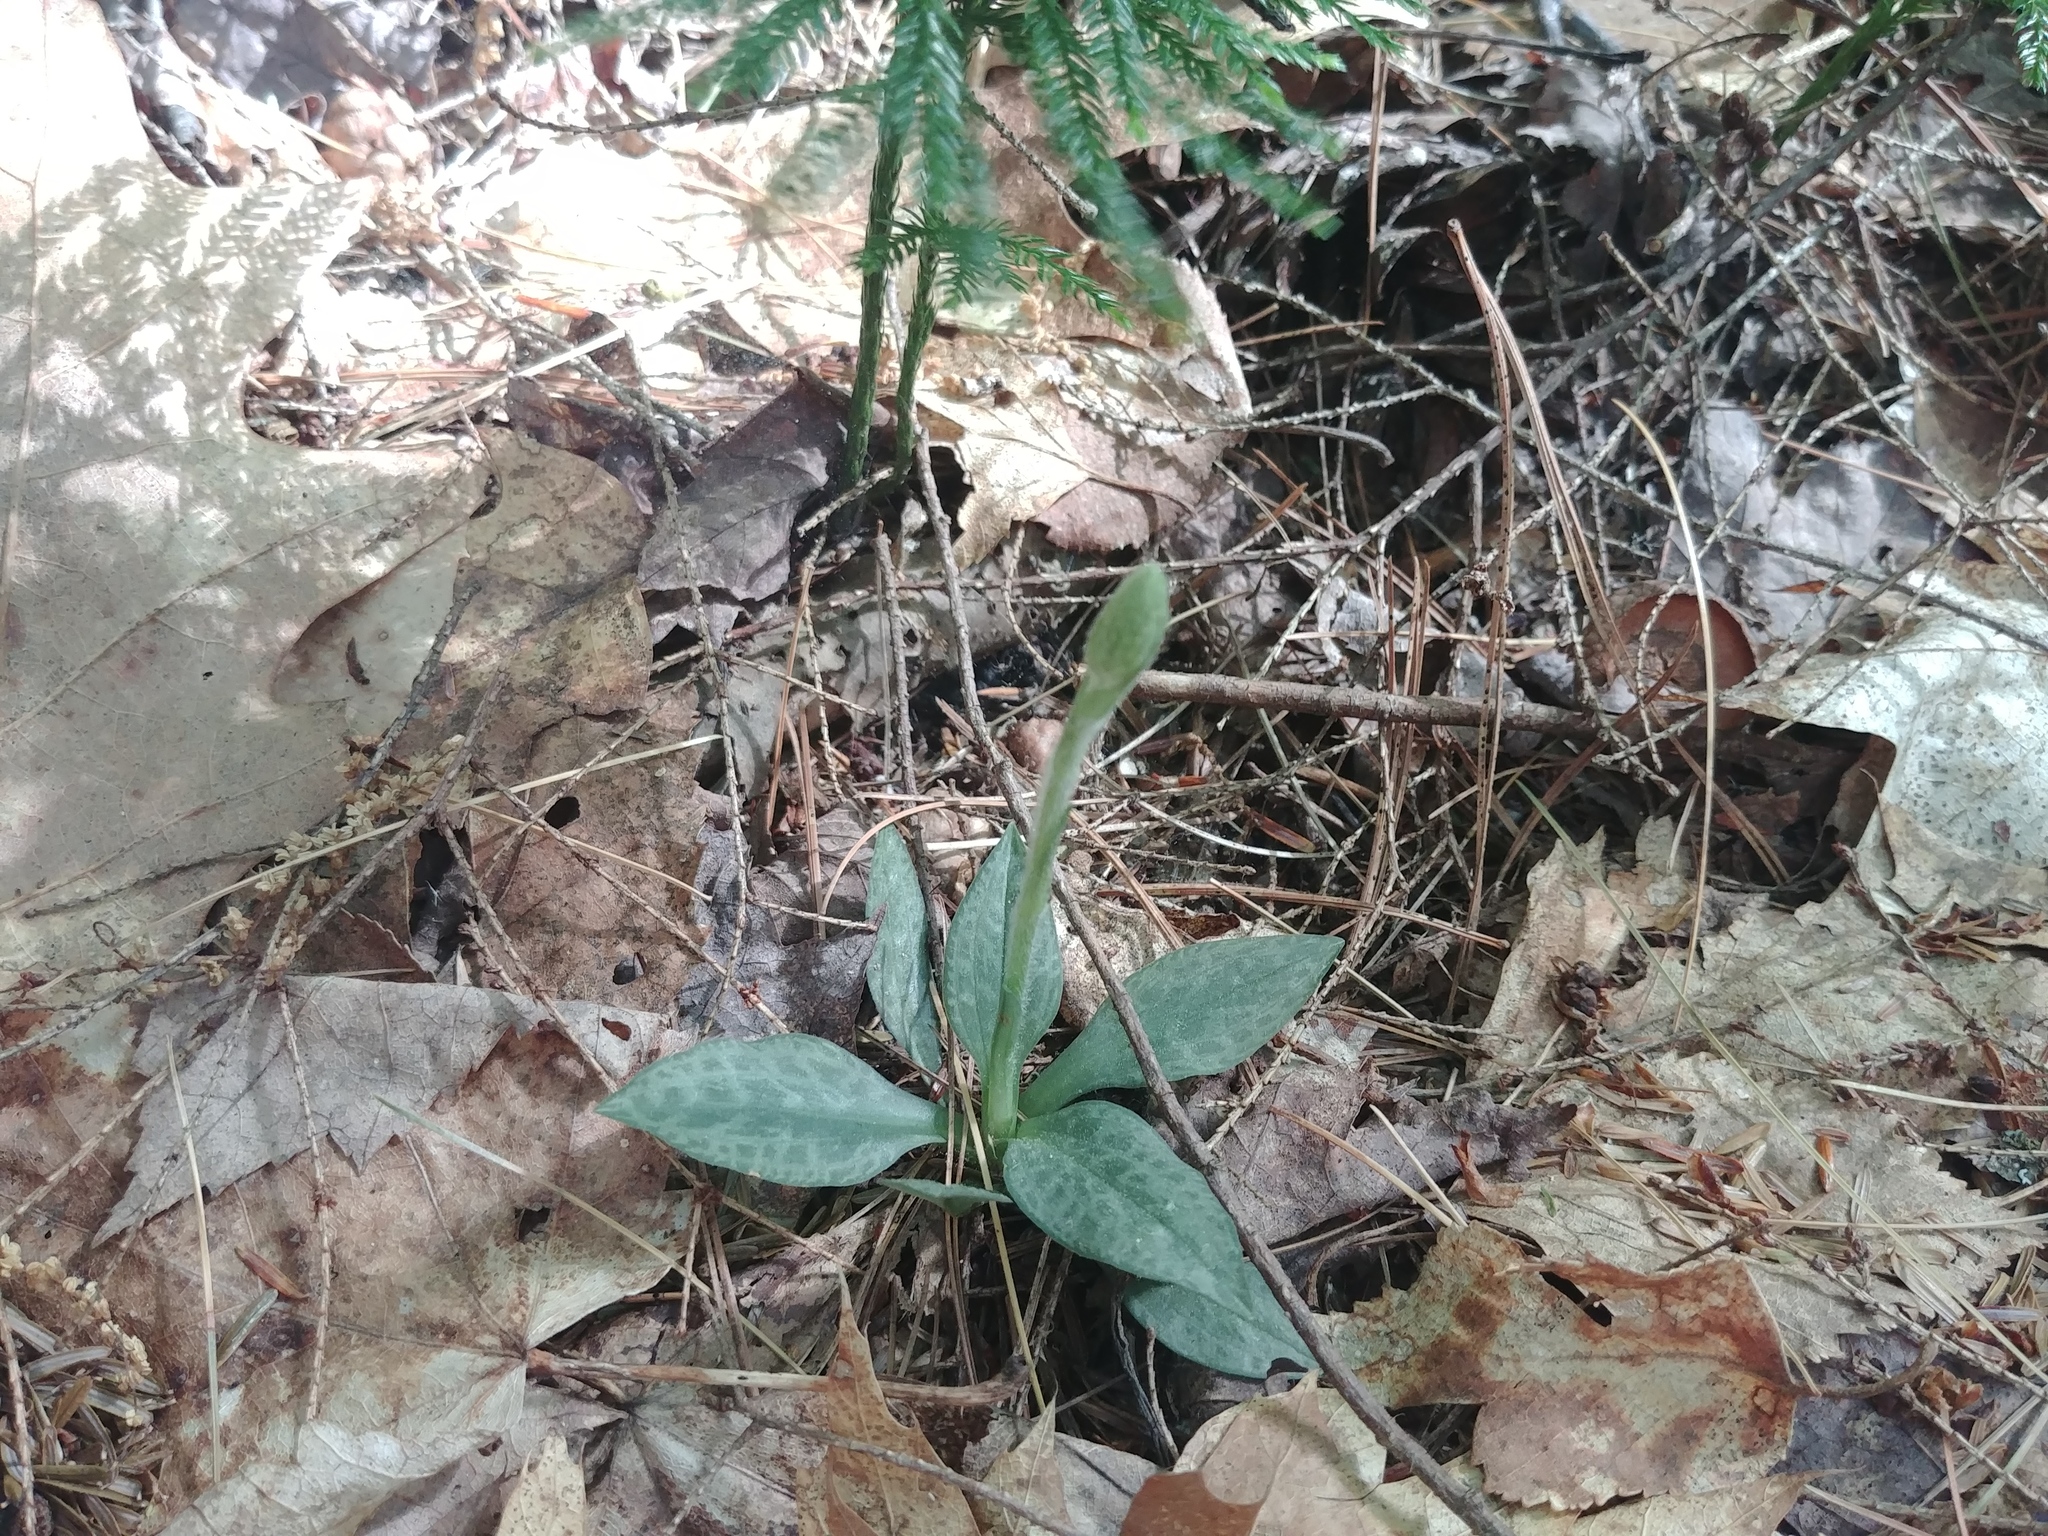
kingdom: Plantae
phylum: Tracheophyta
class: Liliopsida
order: Asparagales
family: Orchidaceae
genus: Goodyera
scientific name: Goodyera tesselata
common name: Checkered rattlesnake-plantain
